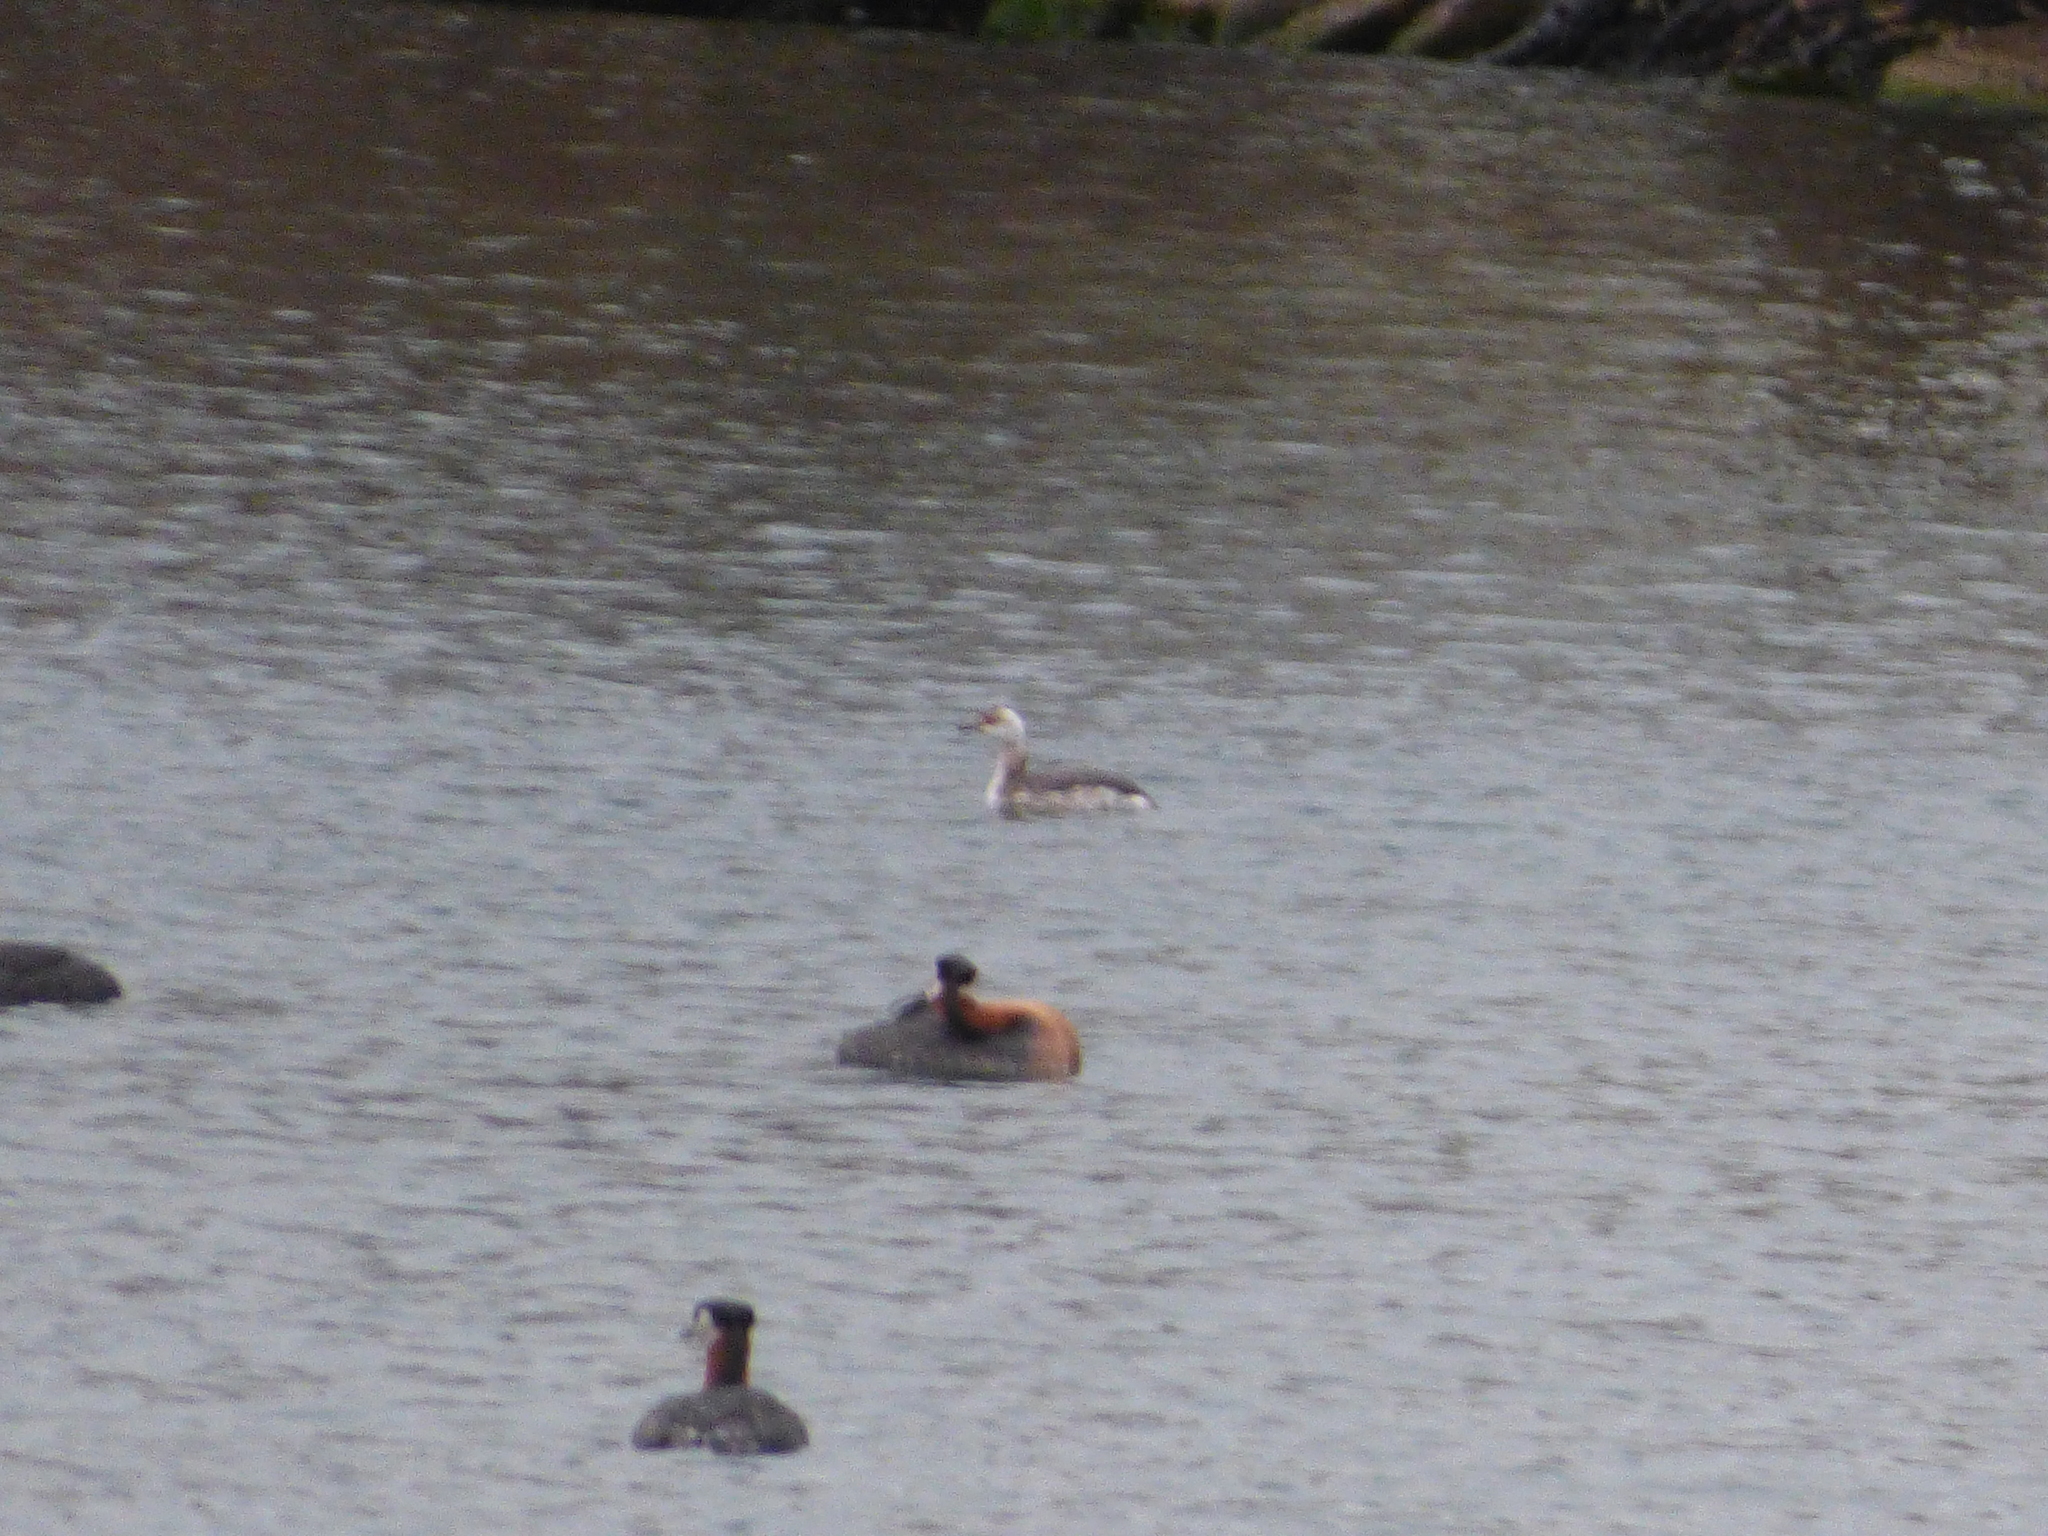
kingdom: Animalia
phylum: Chordata
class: Aves
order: Podicipediformes
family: Podicipedidae
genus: Podiceps
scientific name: Podiceps auritus
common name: Horned grebe
